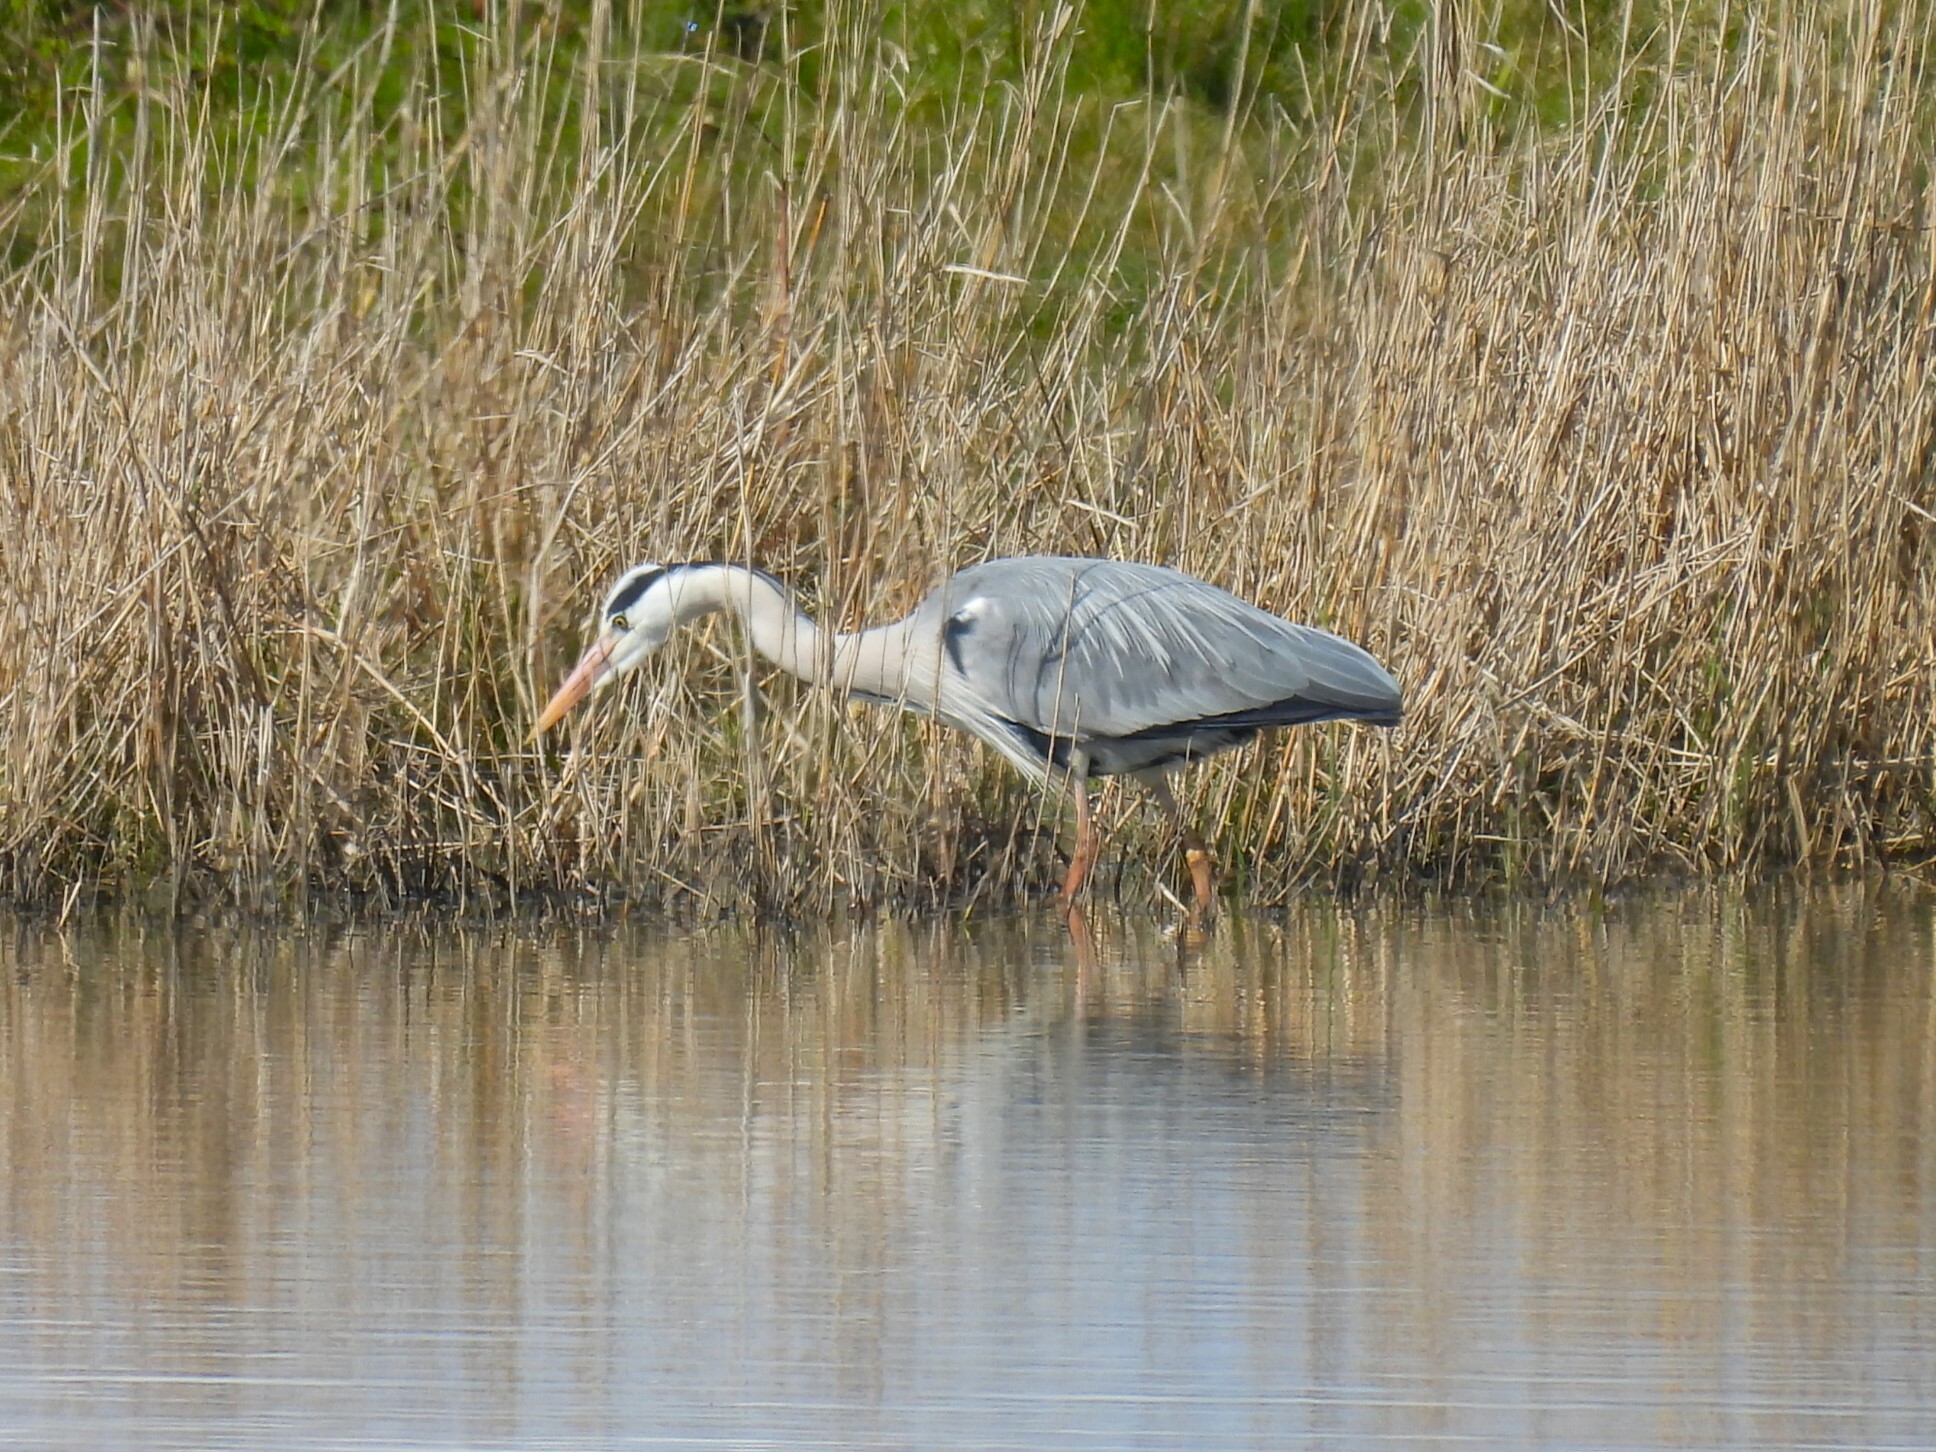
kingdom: Animalia
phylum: Chordata
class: Aves
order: Pelecaniformes
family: Ardeidae
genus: Ardea
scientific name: Ardea cinerea
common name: Grey heron
